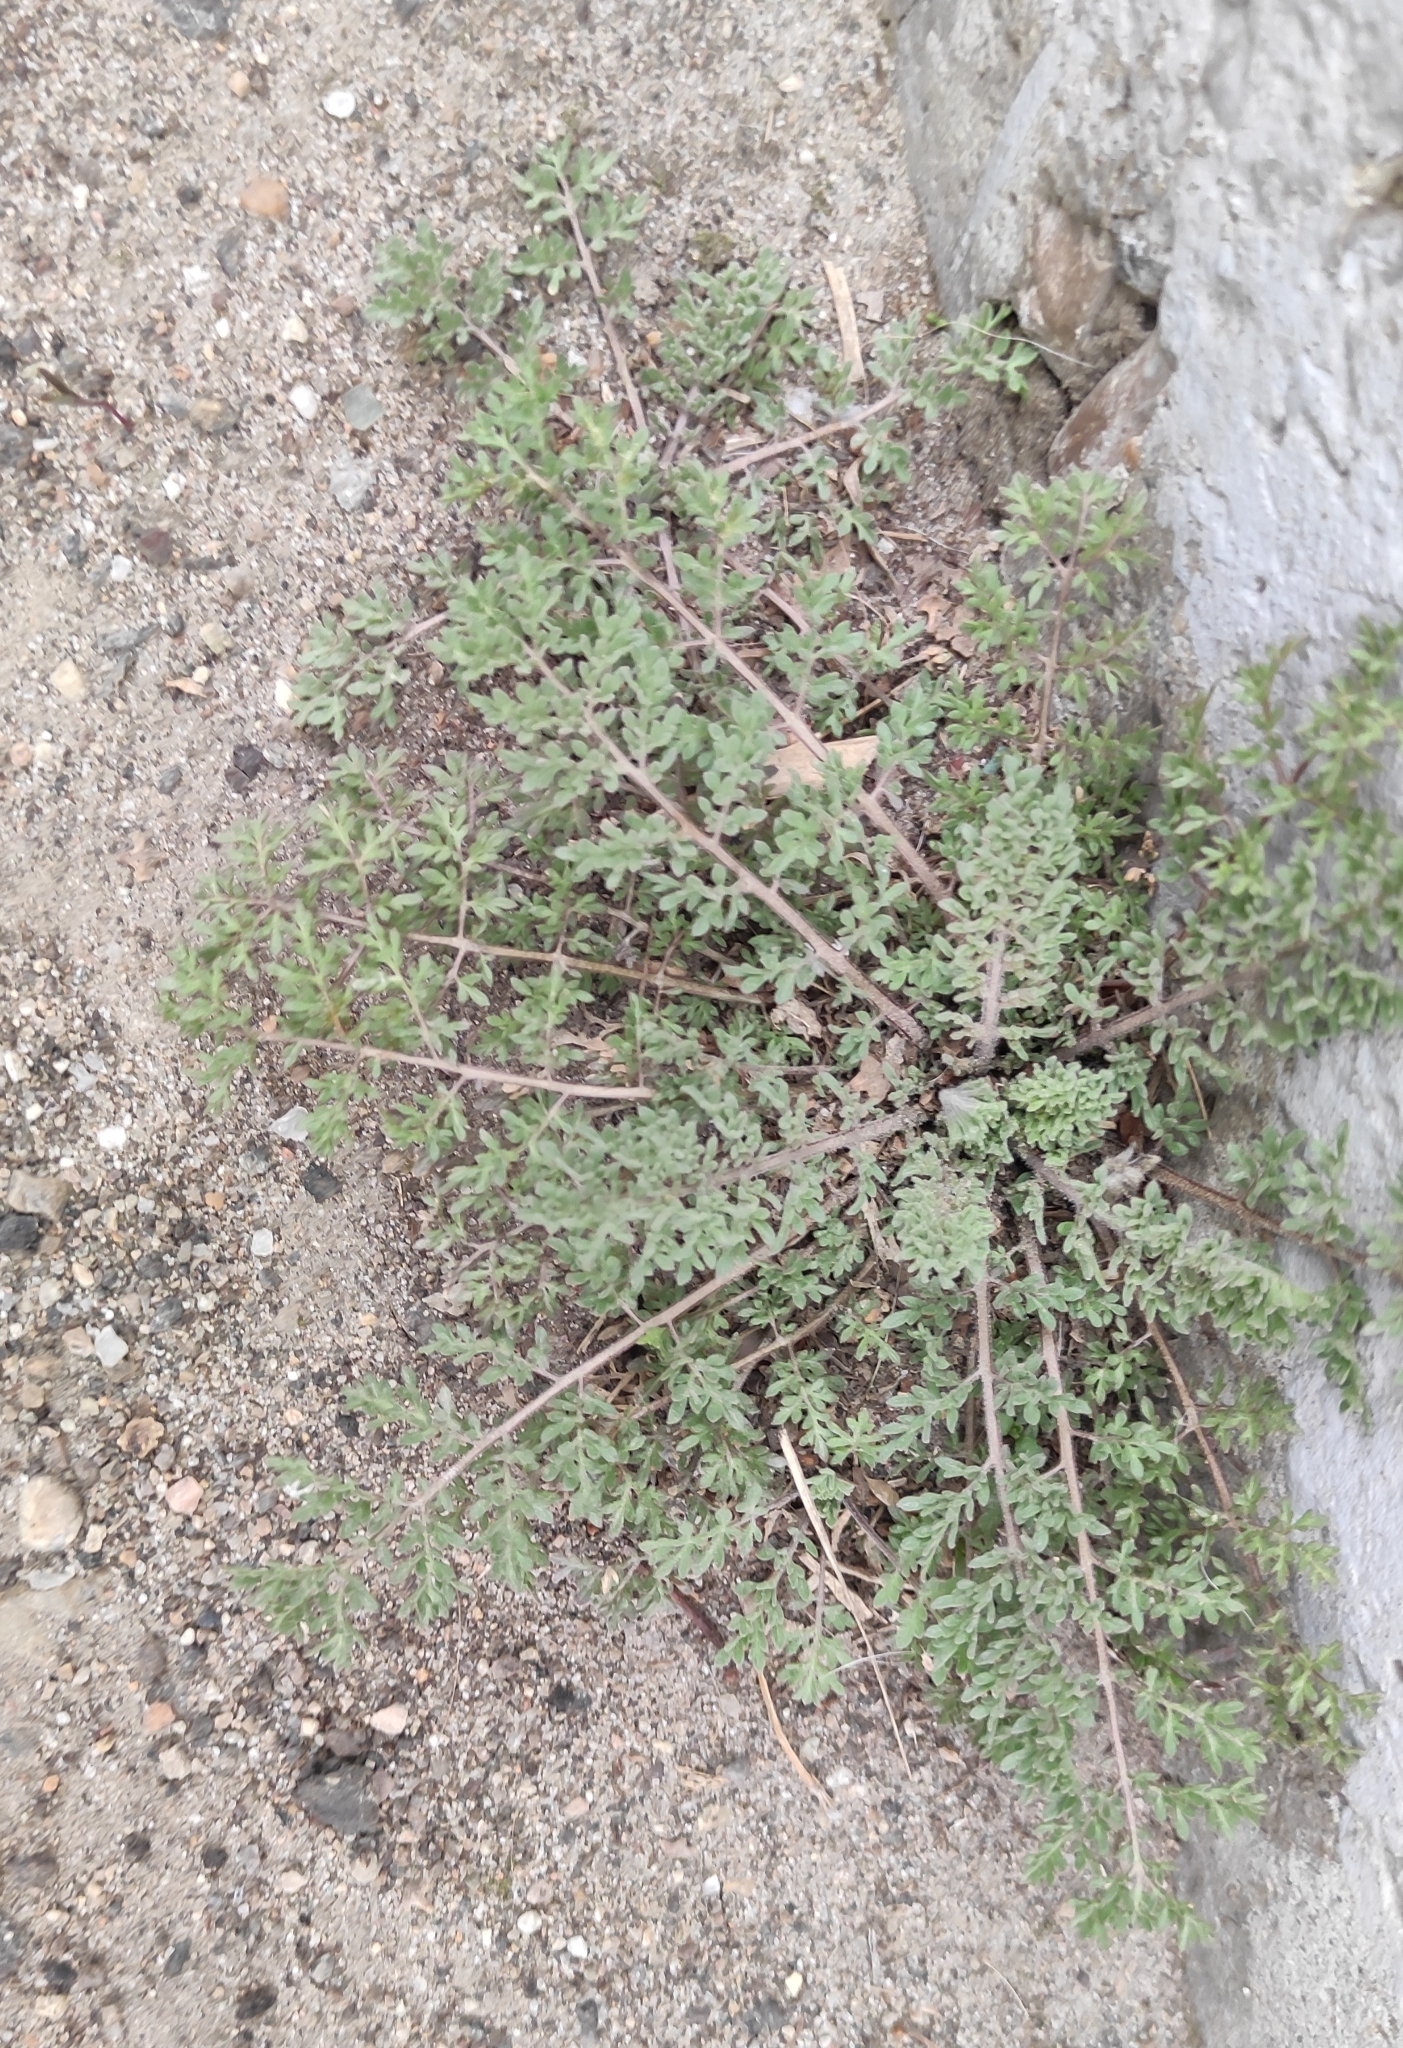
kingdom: Plantae
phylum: Tracheophyta
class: Magnoliopsida
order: Brassicales
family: Brassicaceae
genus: Descurainia
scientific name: Descurainia sophia
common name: Flixweed
